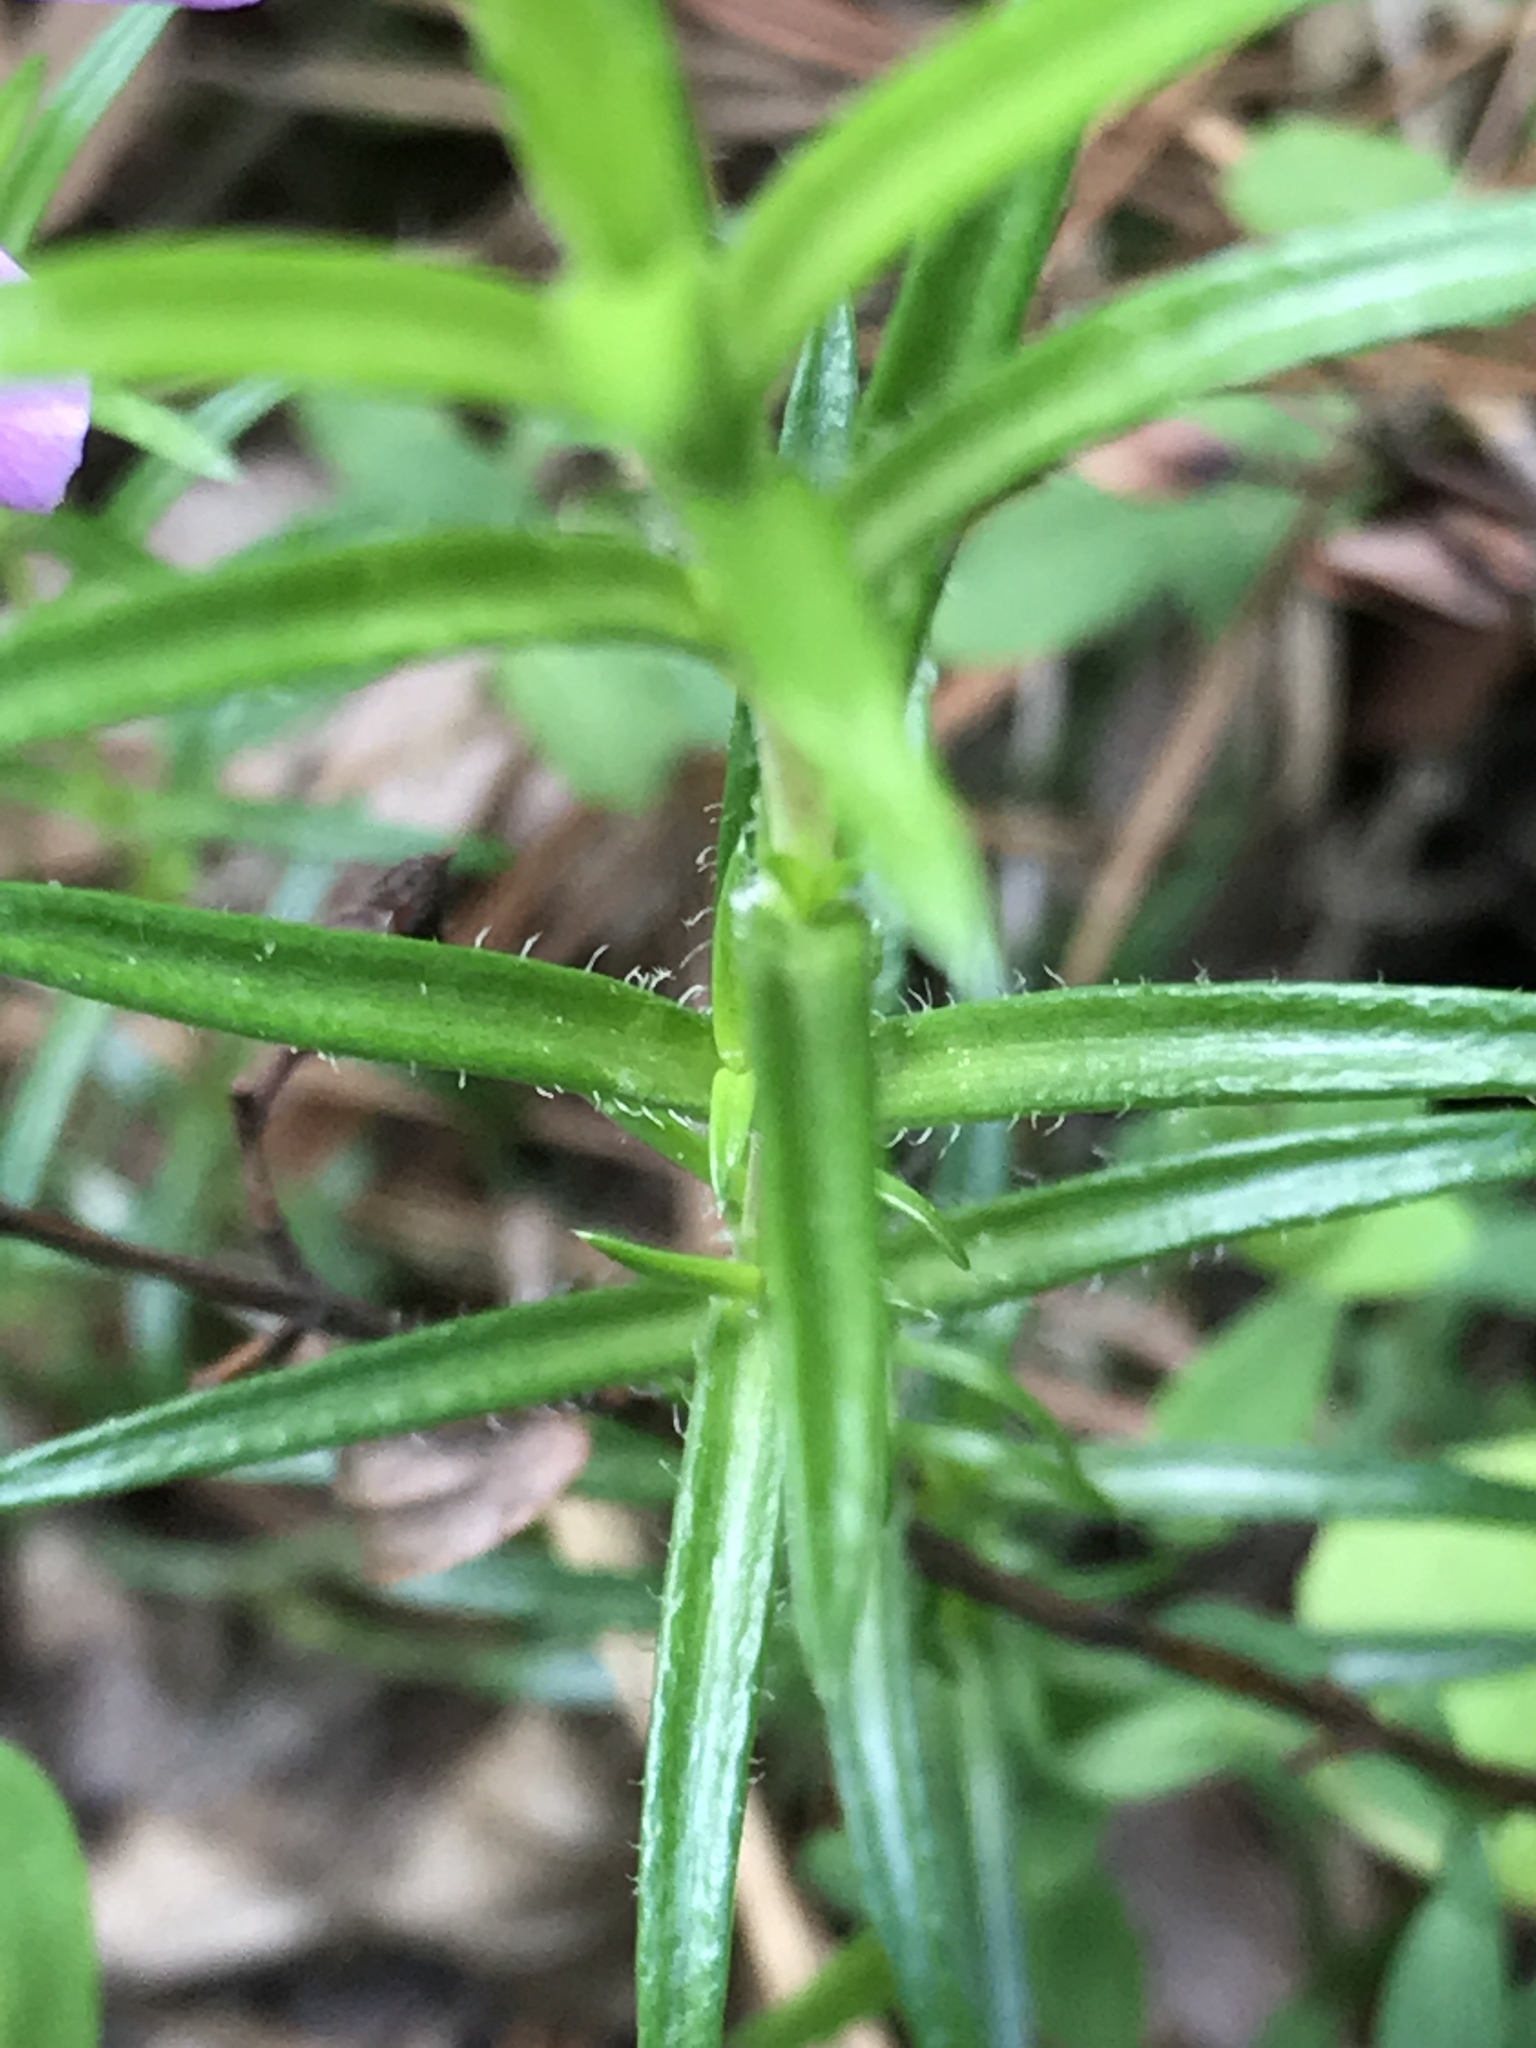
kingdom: Plantae
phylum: Tracheophyta
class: Magnoliopsida
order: Ericales
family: Polemoniaceae
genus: Phlox
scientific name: Phlox nivalis
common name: Trailing phlox
